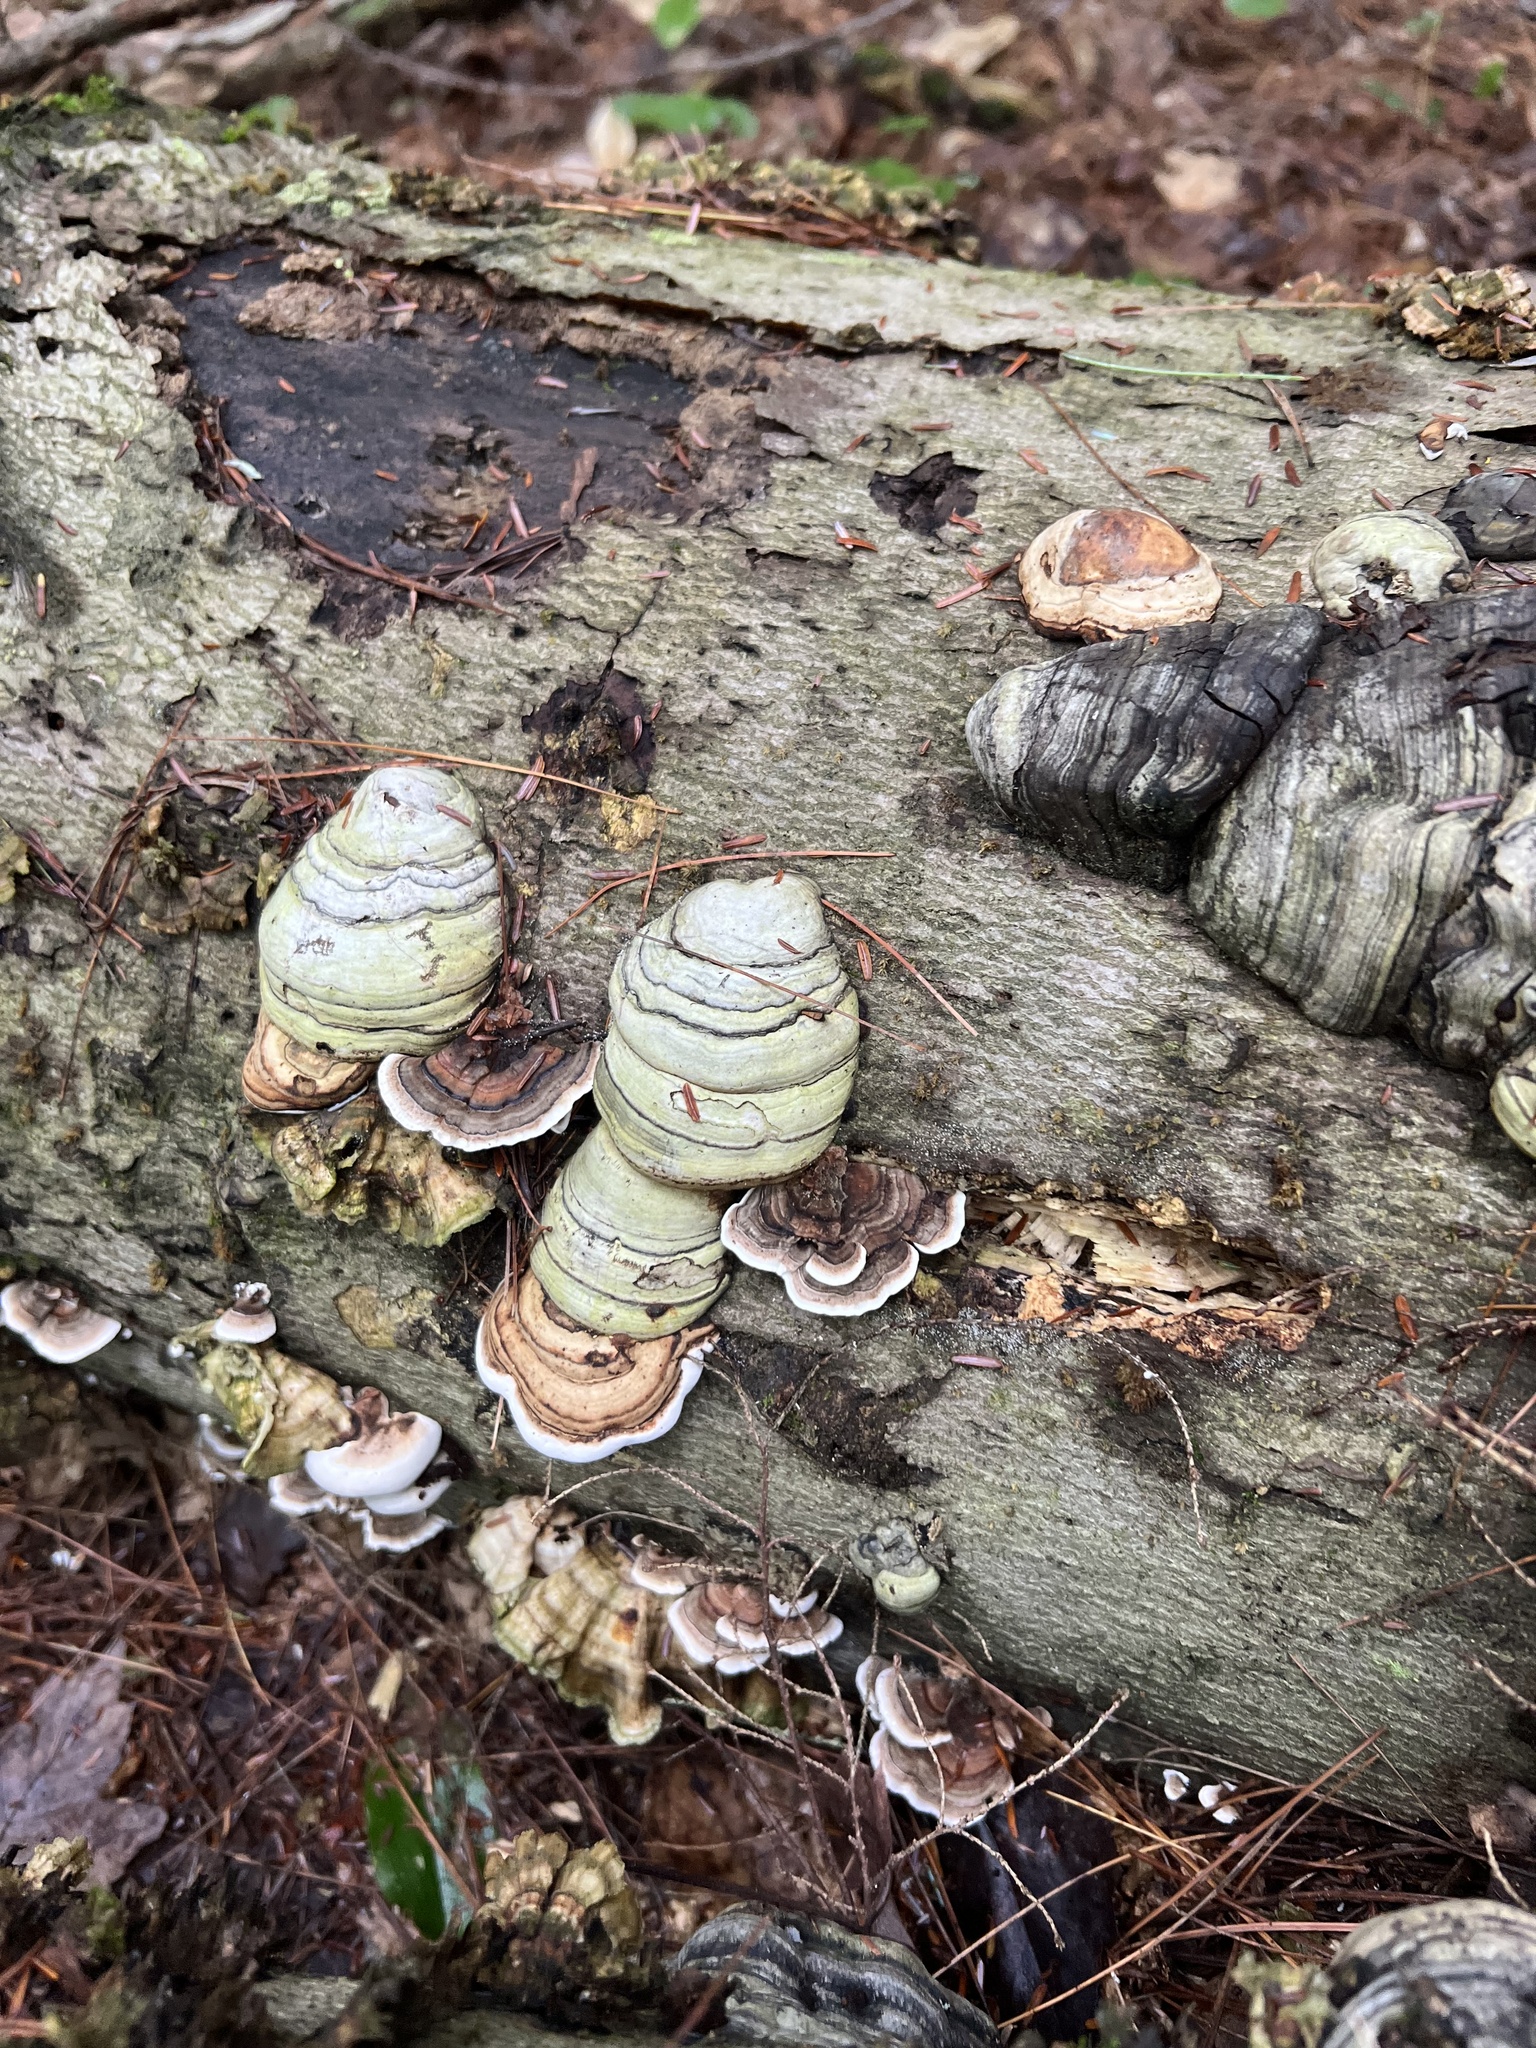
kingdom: Fungi
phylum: Basidiomycota
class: Agaricomycetes
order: Polyporales
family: Polyporaceae
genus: Fomes
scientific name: Fomes fomentarius
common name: Hoof fungus
